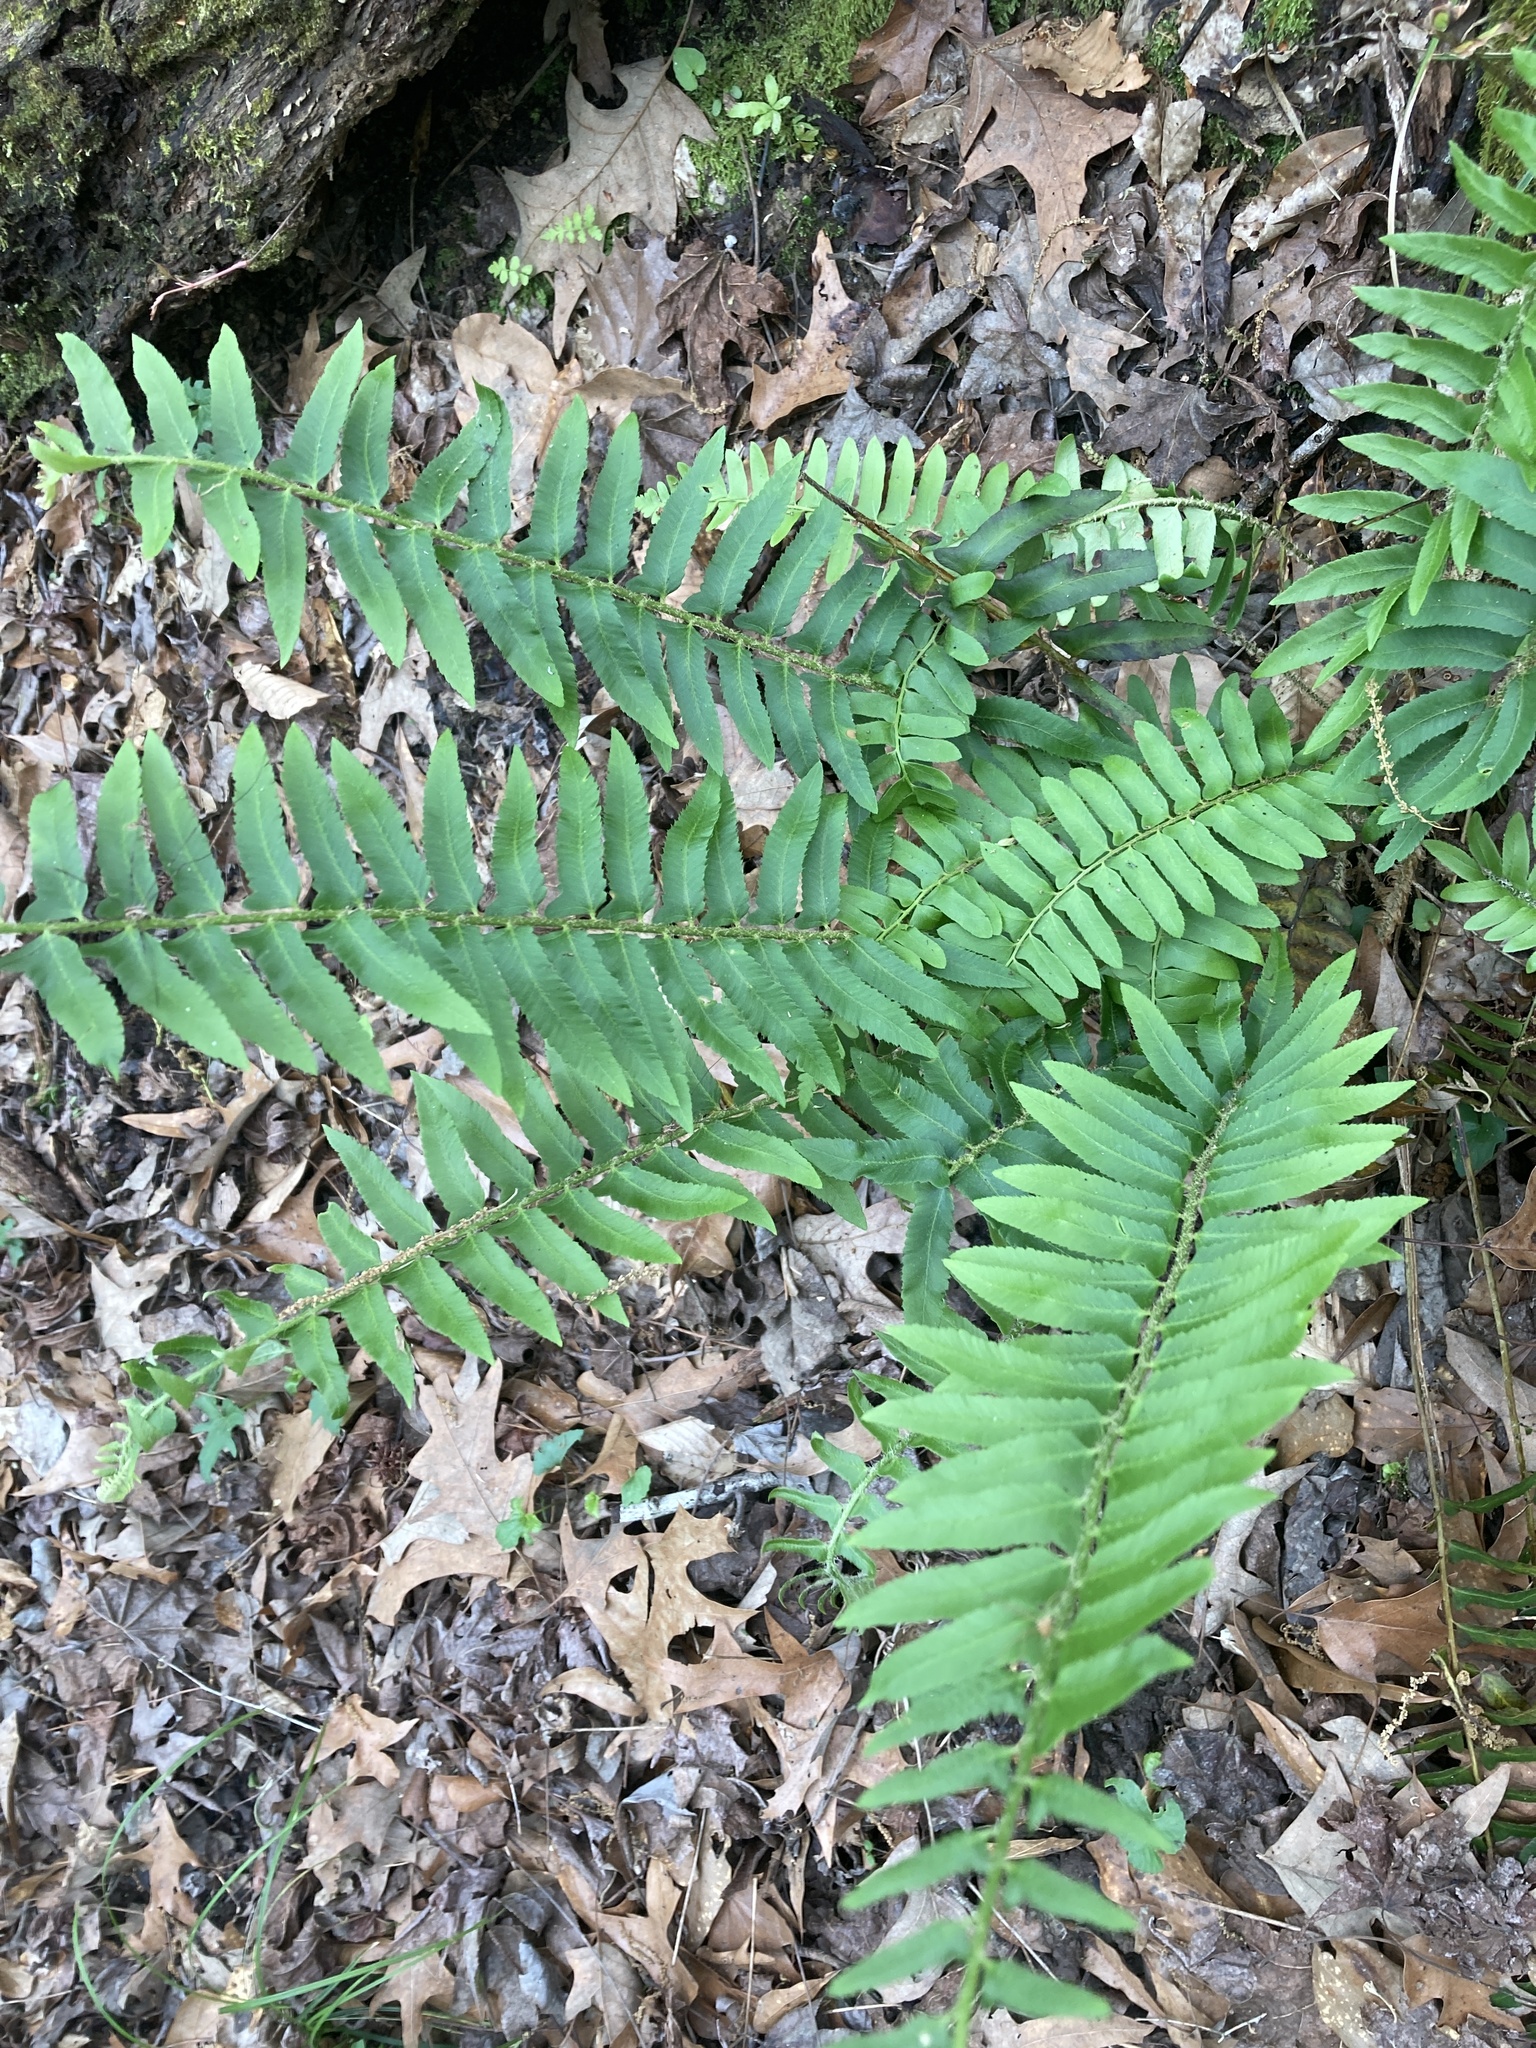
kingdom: Plantae
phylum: Tracheophyta
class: Polypodiopsida
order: Polypodiales
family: Dryopteridaceae
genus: Polystichum
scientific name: Polystichum acrostichoides
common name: Christmas fern
